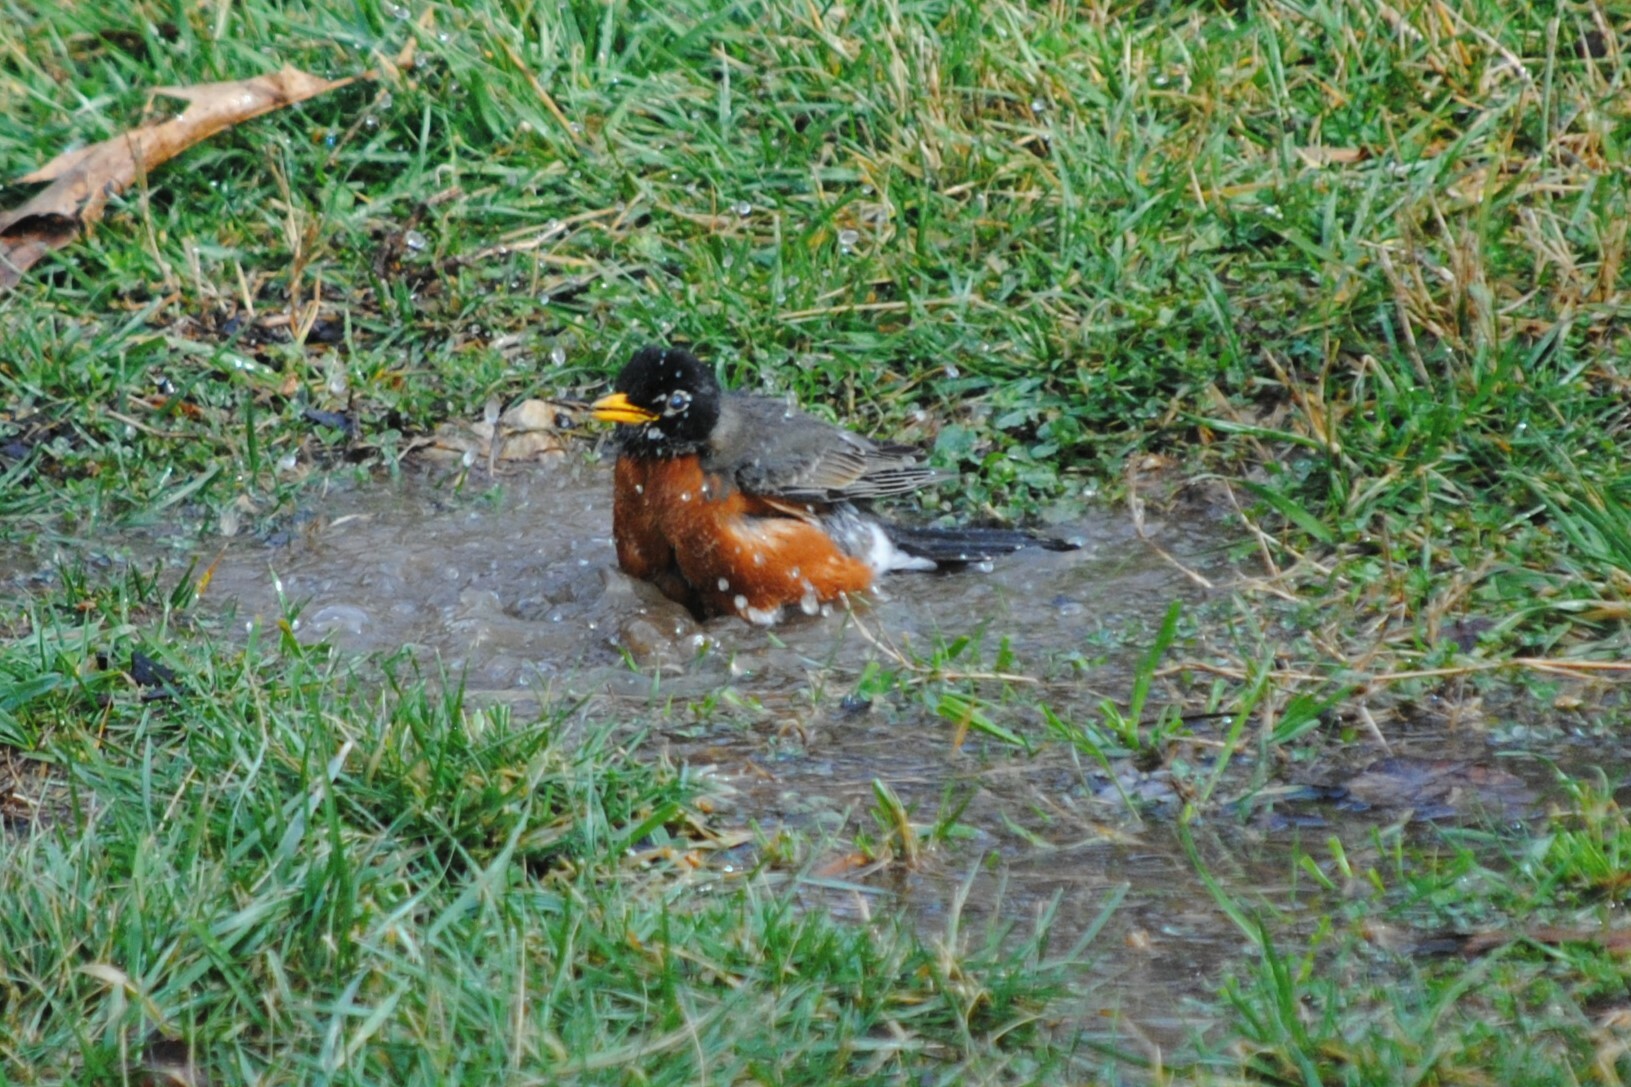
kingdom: Animalia
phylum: Chordata
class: Aves
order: Passeriformes
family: Turdidae
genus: Turdus
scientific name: Turdus migratorius
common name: American robin
